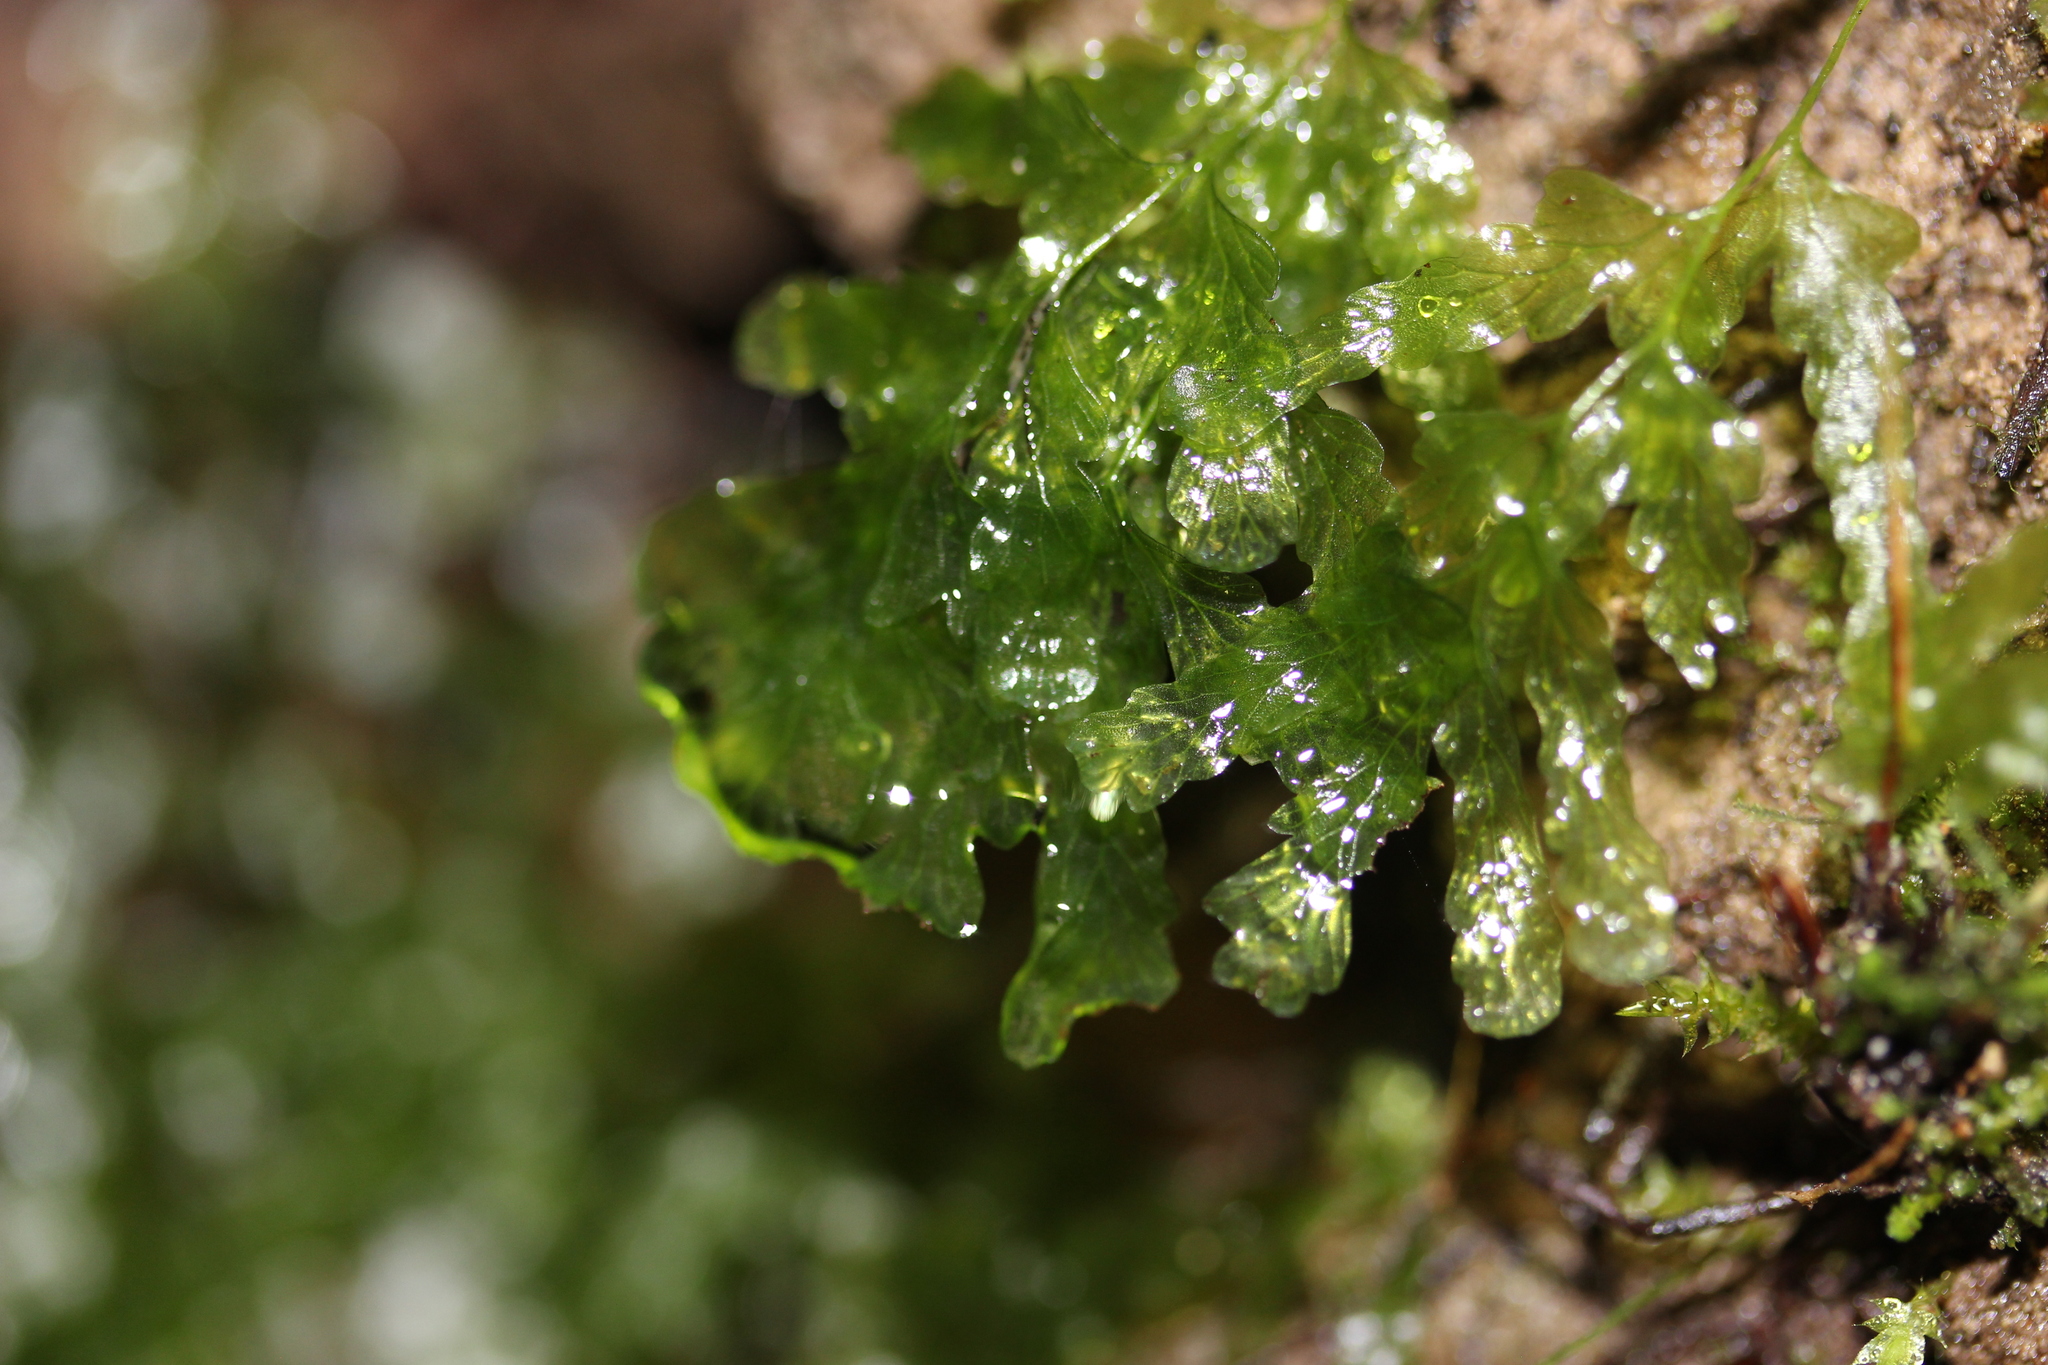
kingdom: Plantae
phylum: Tracheophyta
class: Polypodiopsida
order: Hymenophyllales
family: Hymenophyllaceae
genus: Polyphlebium
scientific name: Polyphlebium venosum
